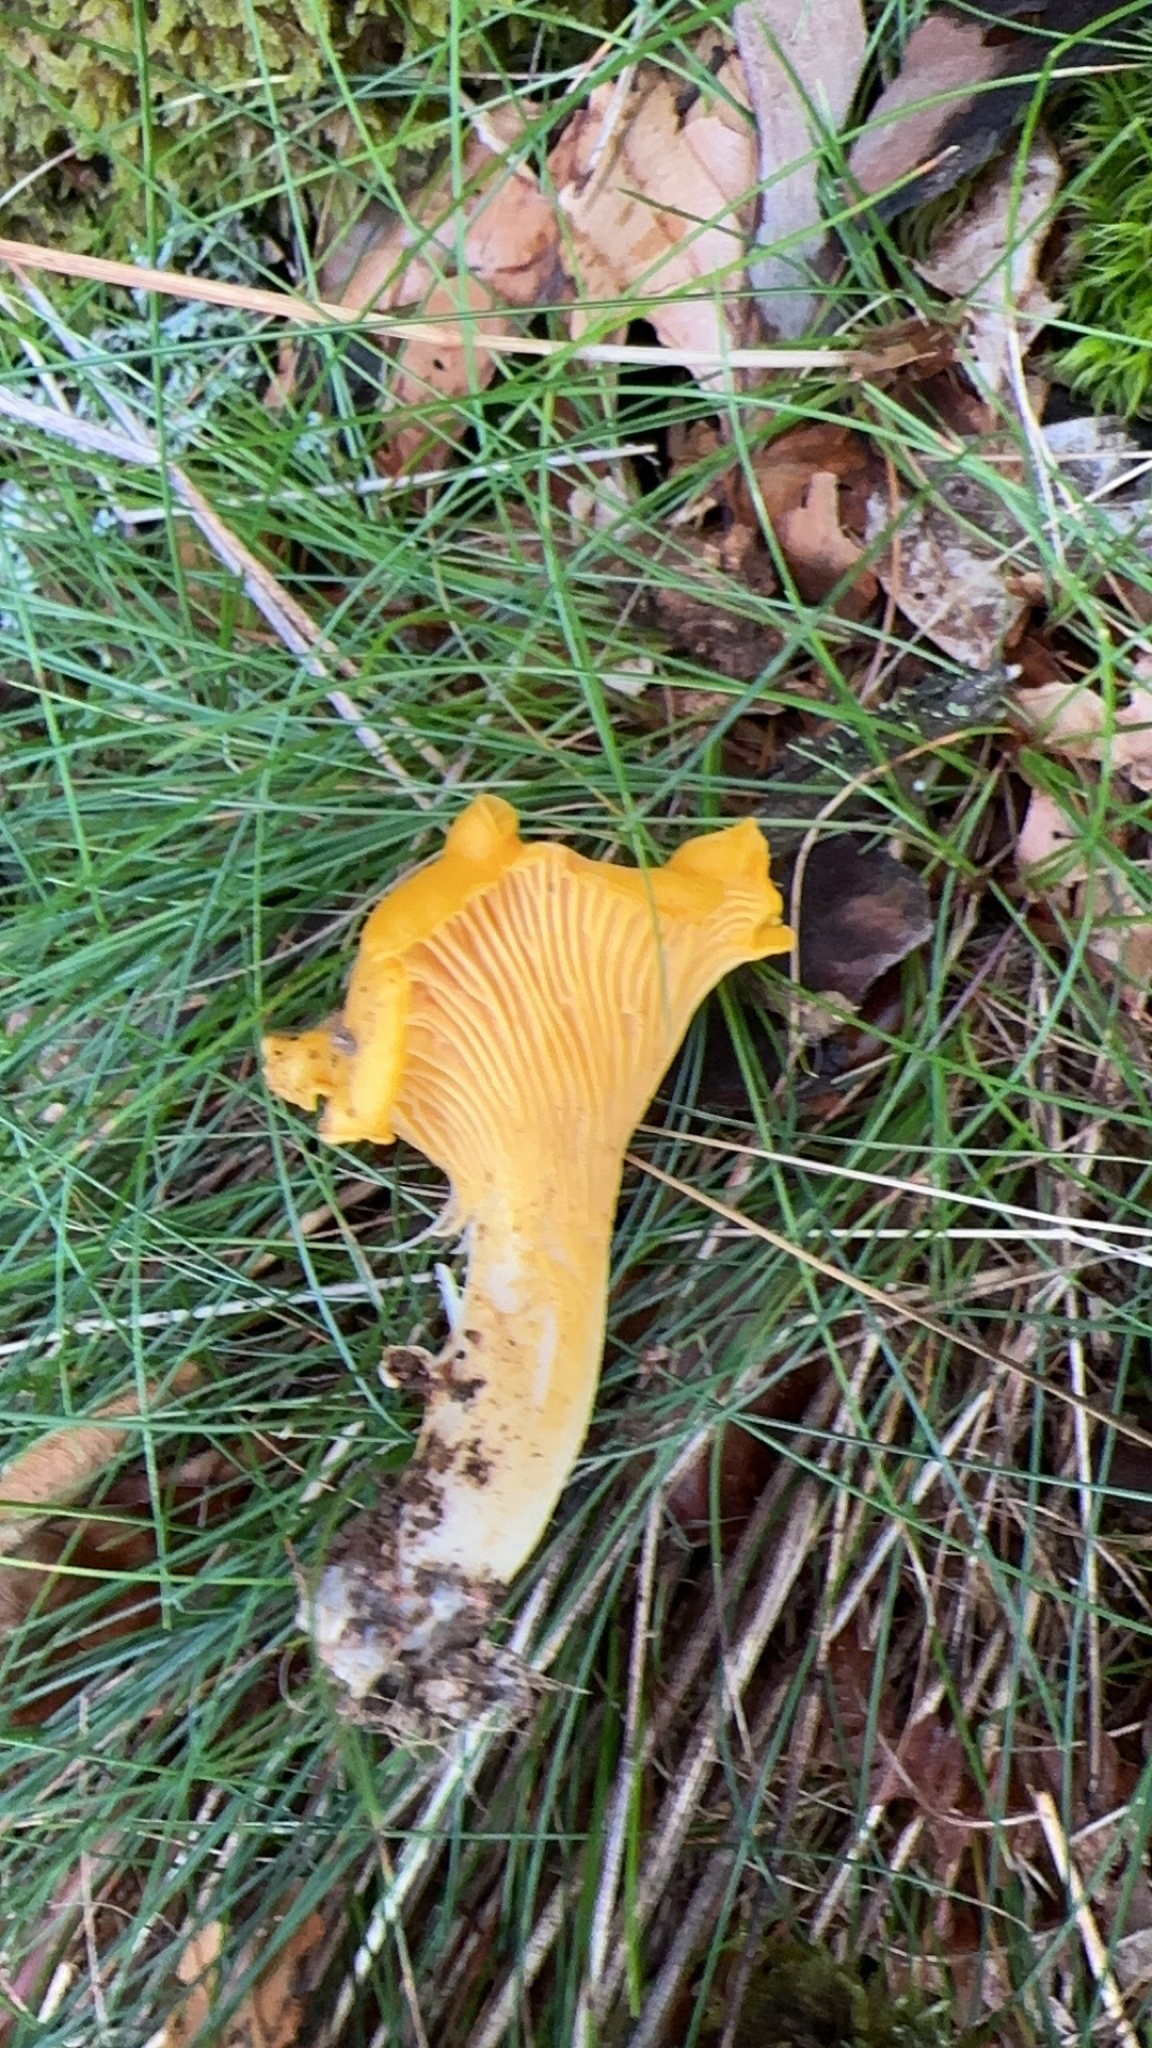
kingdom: Fungi
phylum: Basidiomycota
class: Agaricomycetes
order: Cantharellales
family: Hydnaceae
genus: Cantharellus
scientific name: Cantharellus cibarius
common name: Chanterelle
